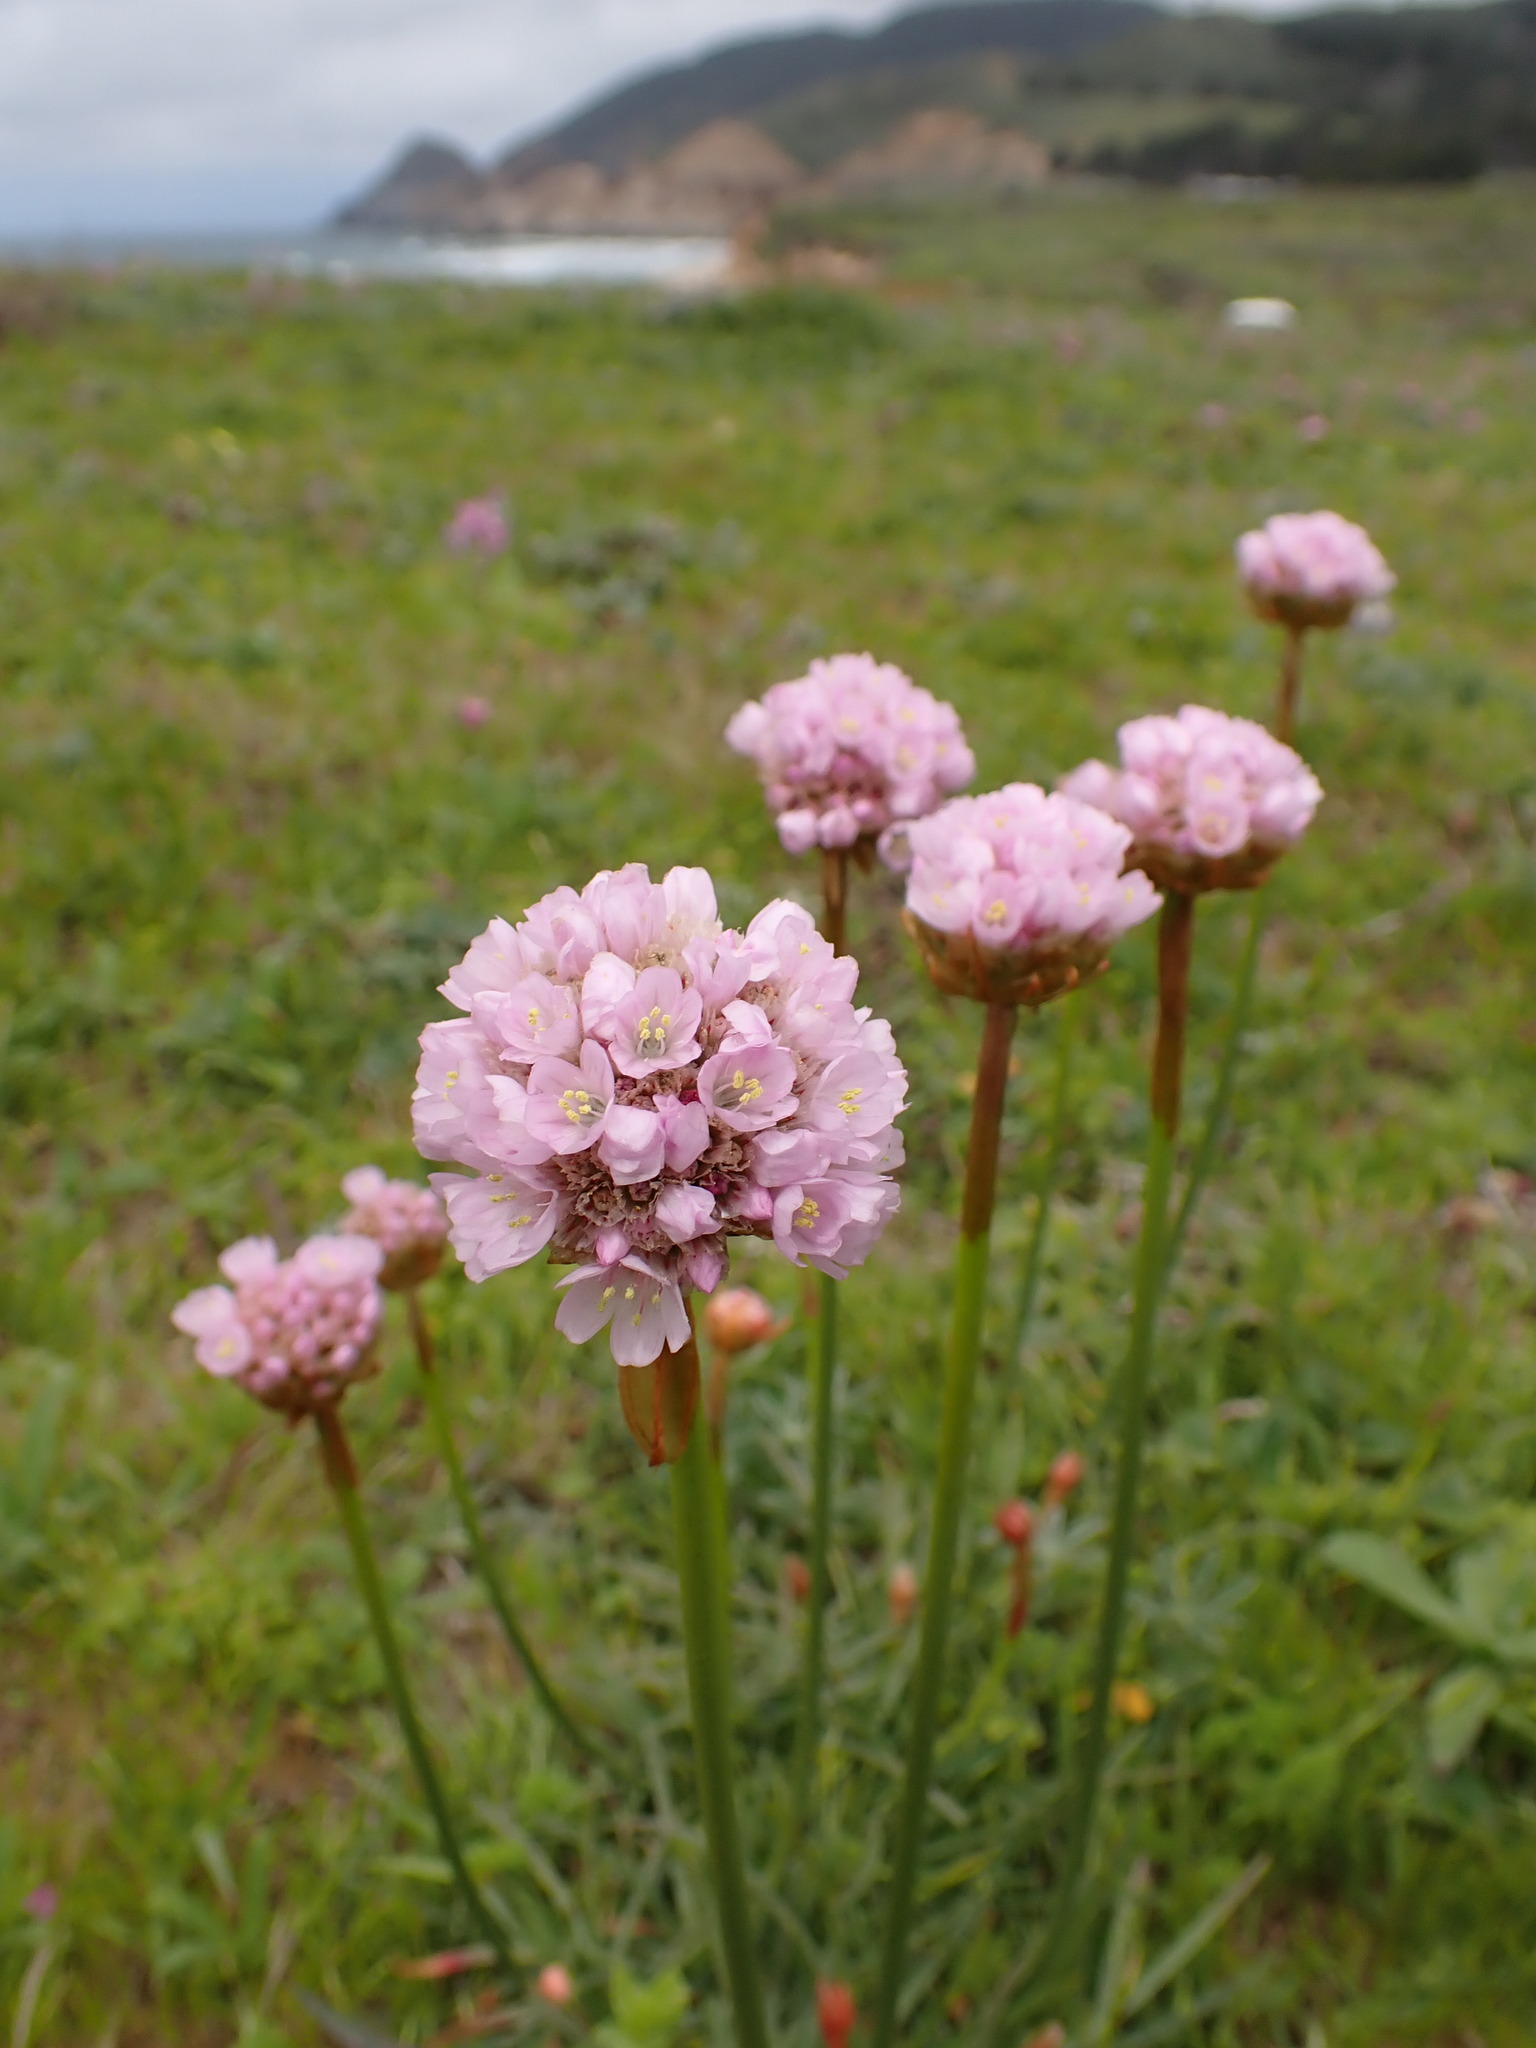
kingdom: Plantae
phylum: Tracheophyta
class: Magnoliopsida
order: Caryophyllales
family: Plumbaginaceae
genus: Armeria
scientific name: Armeria maritima
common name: Thrift
